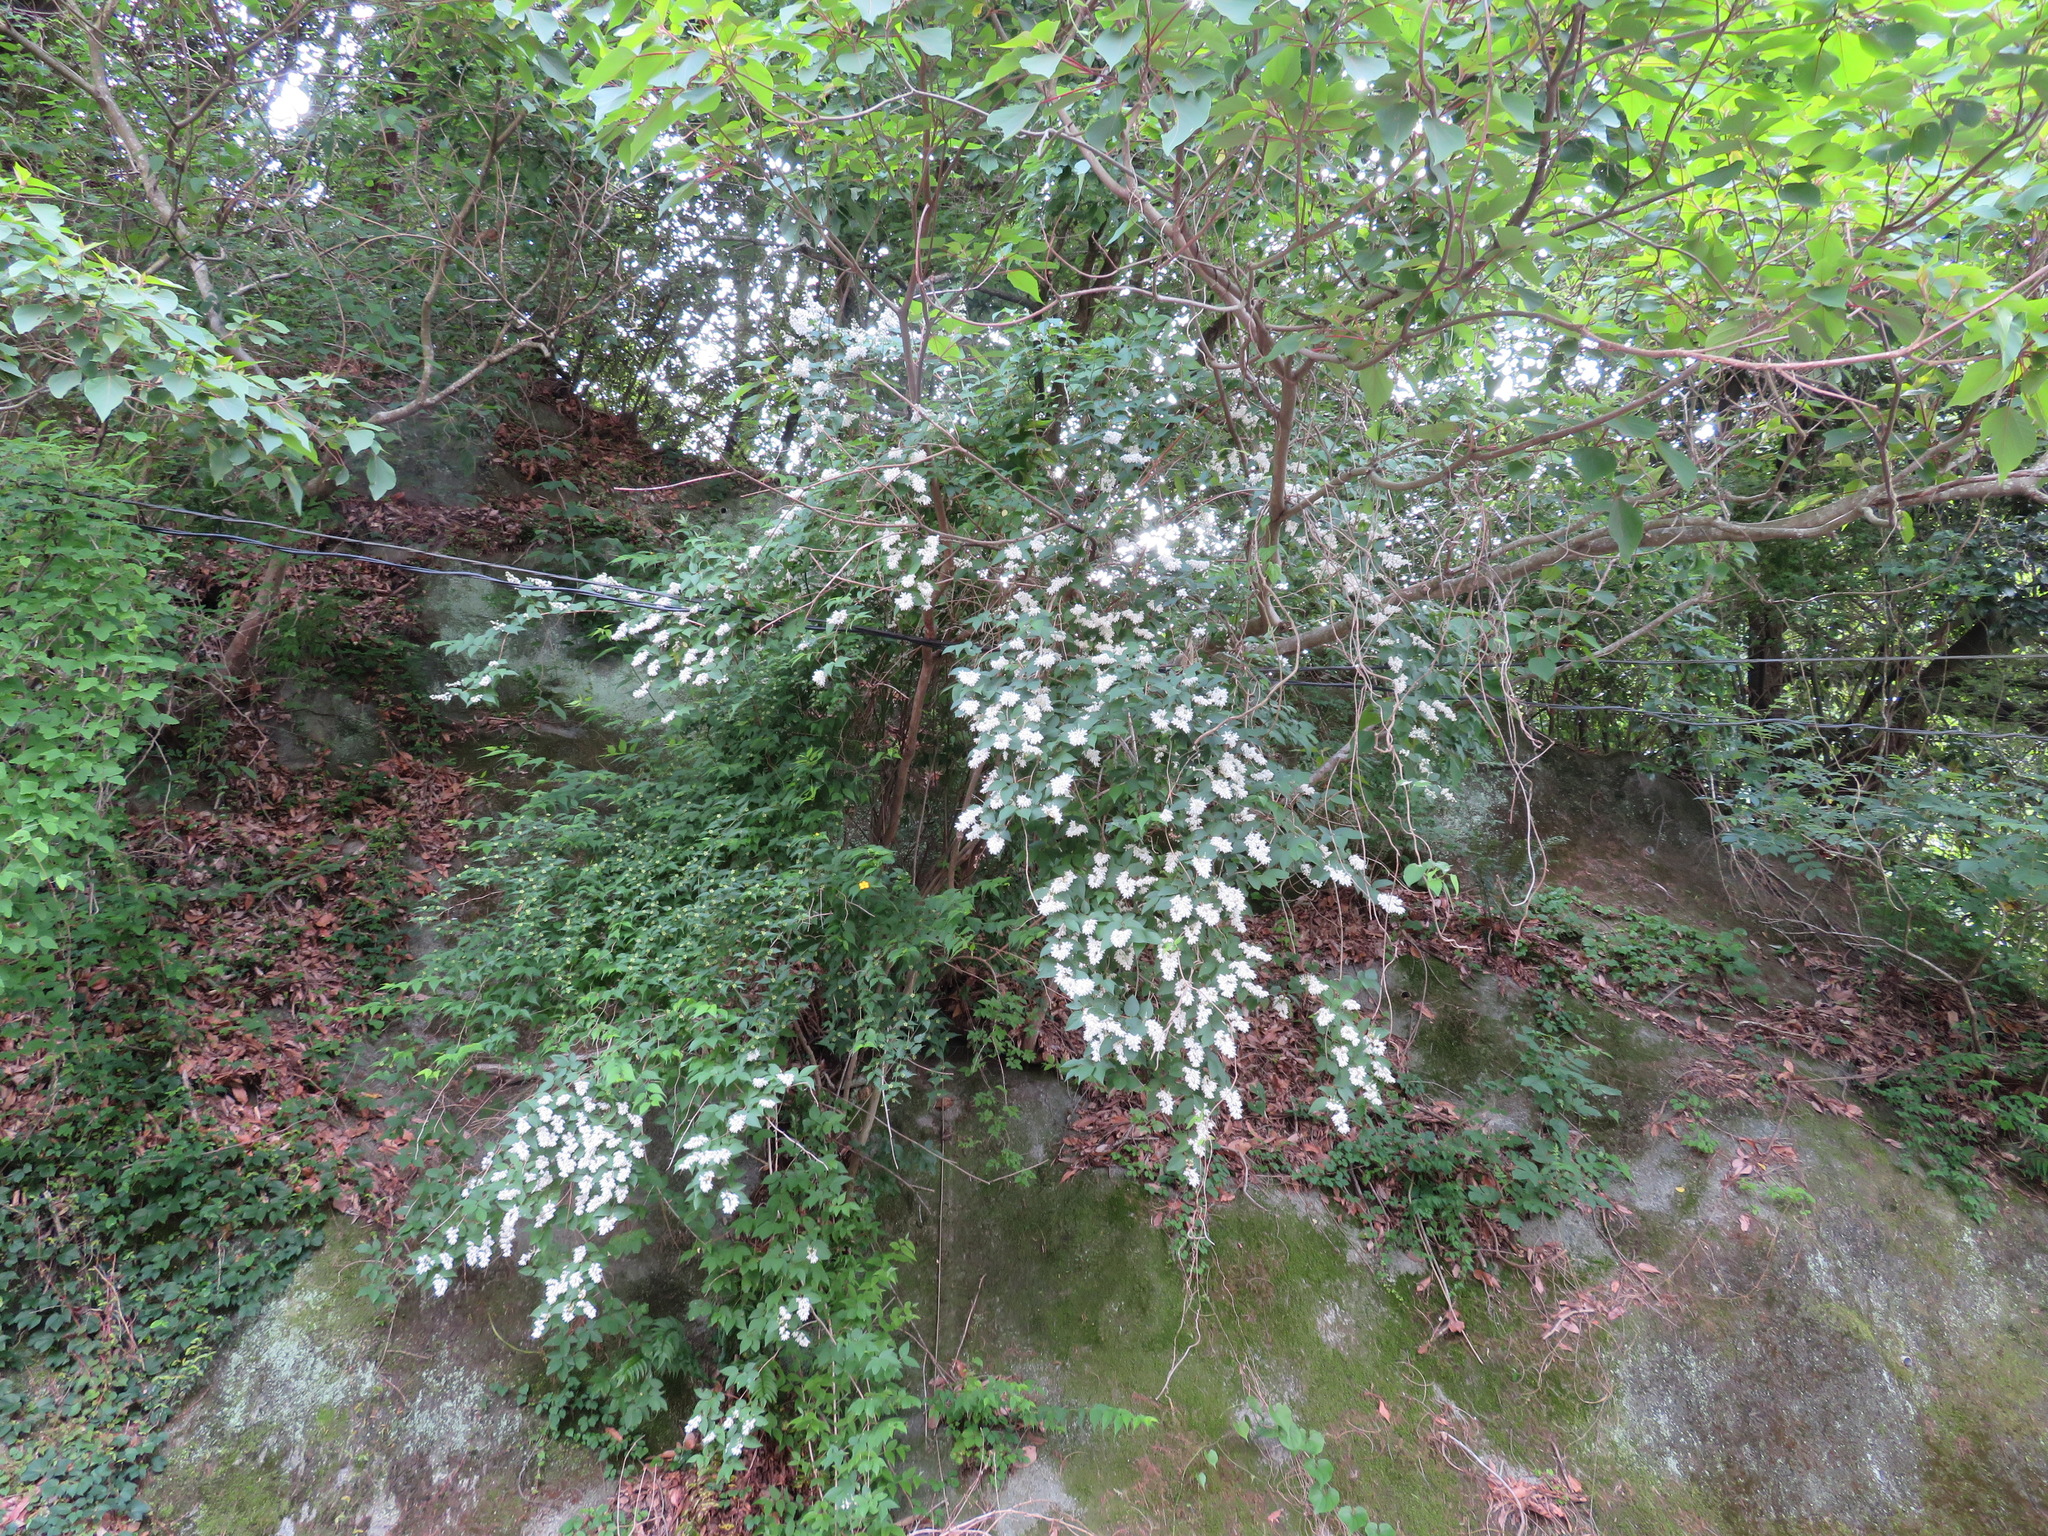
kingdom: Plantae
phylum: Tracheophyta
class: Magnoliopsida
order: Cornales
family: Hydrangeaceae
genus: Deutzia
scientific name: Deutzia crenata
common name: Deutzia
